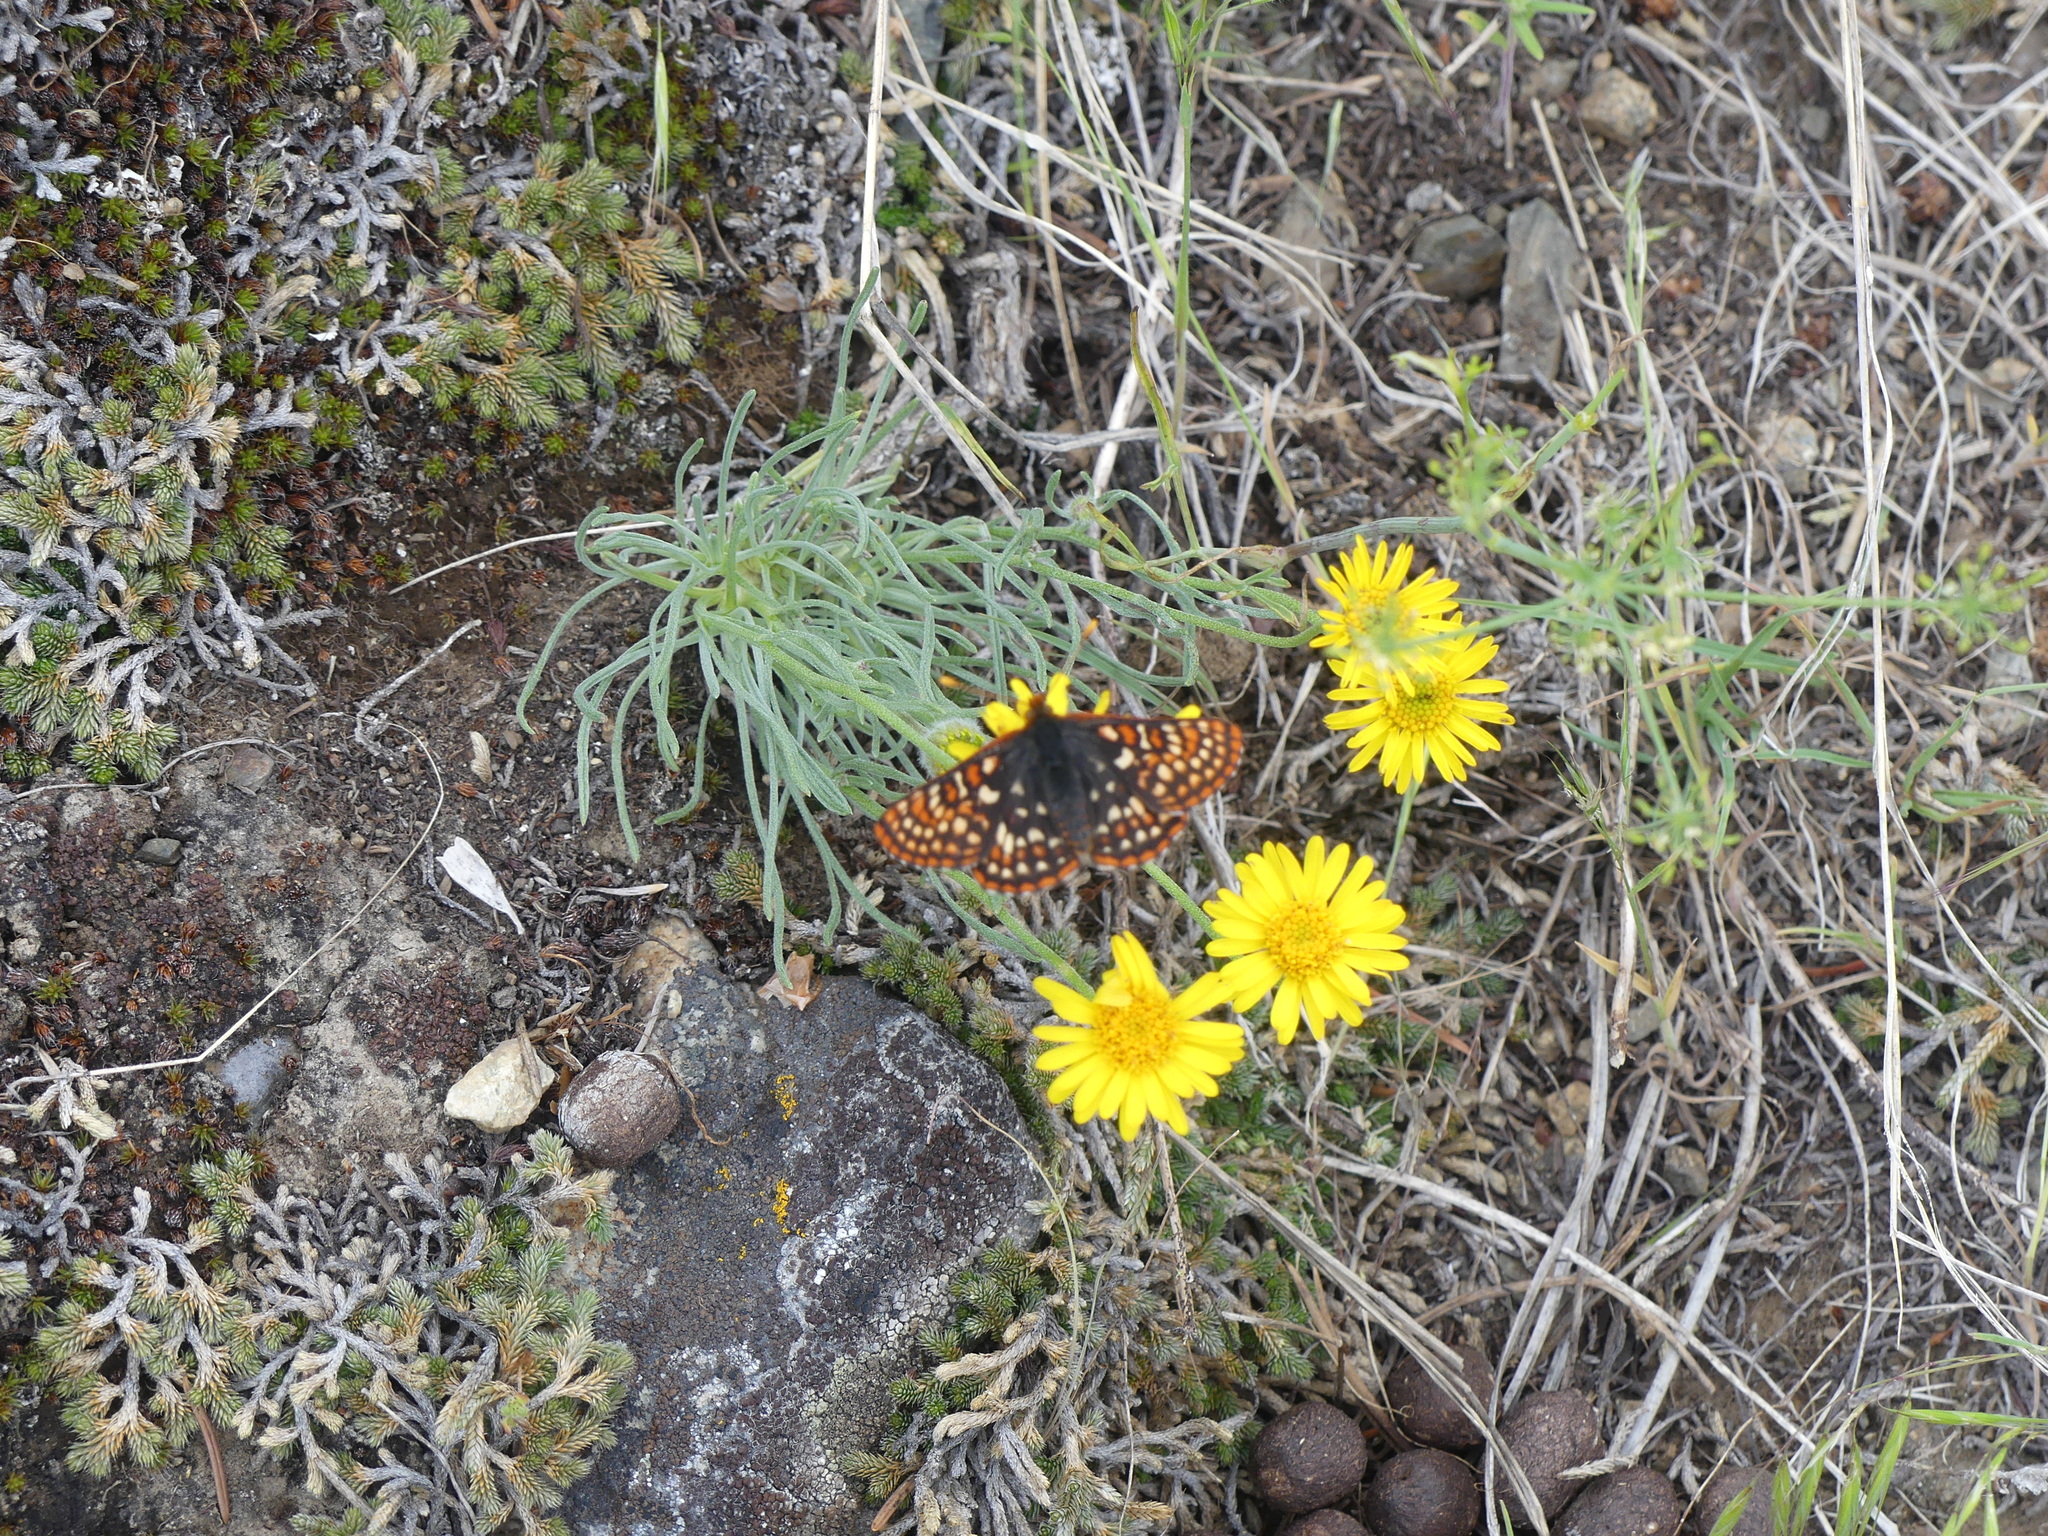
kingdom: Animalia
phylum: Arthropoda
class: Insecta
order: Lepidoptera
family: Nymphalidae
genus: Occidryas
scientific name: Occidryas anicia
